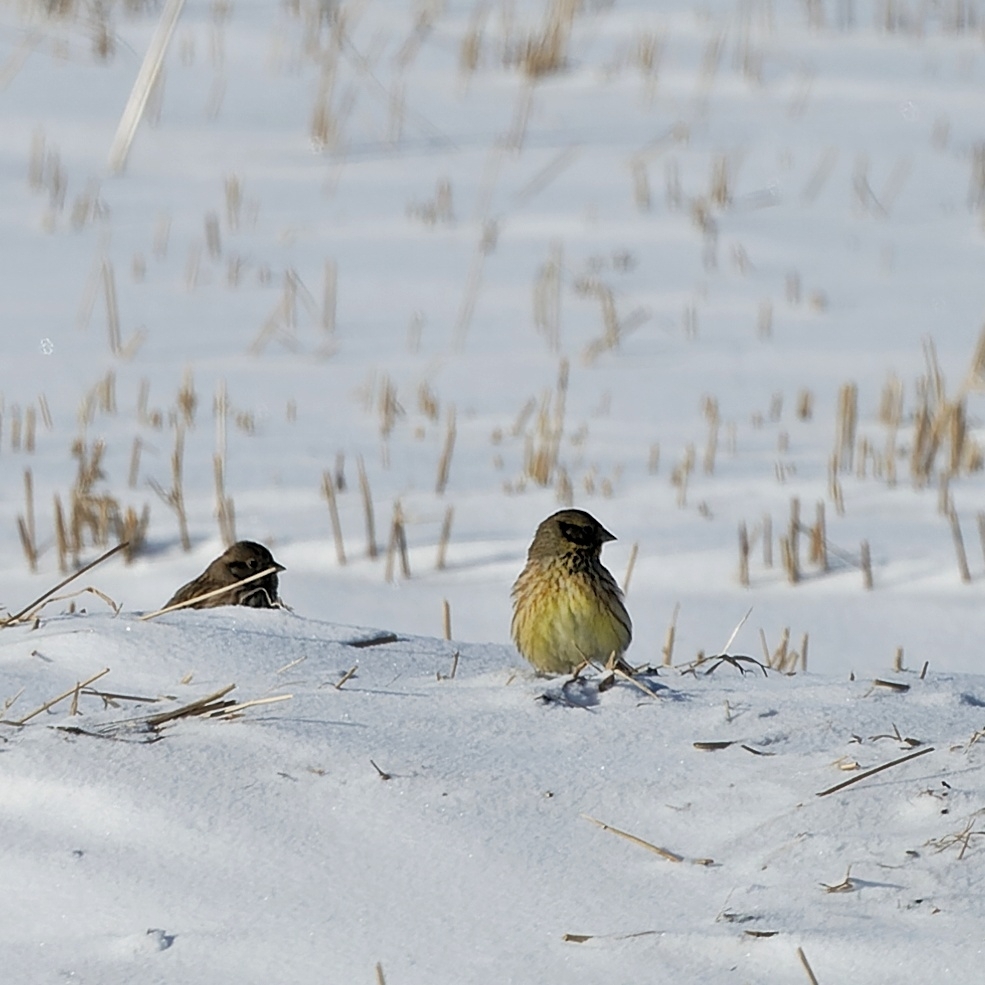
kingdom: Animalia
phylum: Chordata
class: Aves
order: Passeriformes
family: Emberizidae
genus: Emberiza
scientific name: Emberiza citrinella
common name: Yellowhammer
